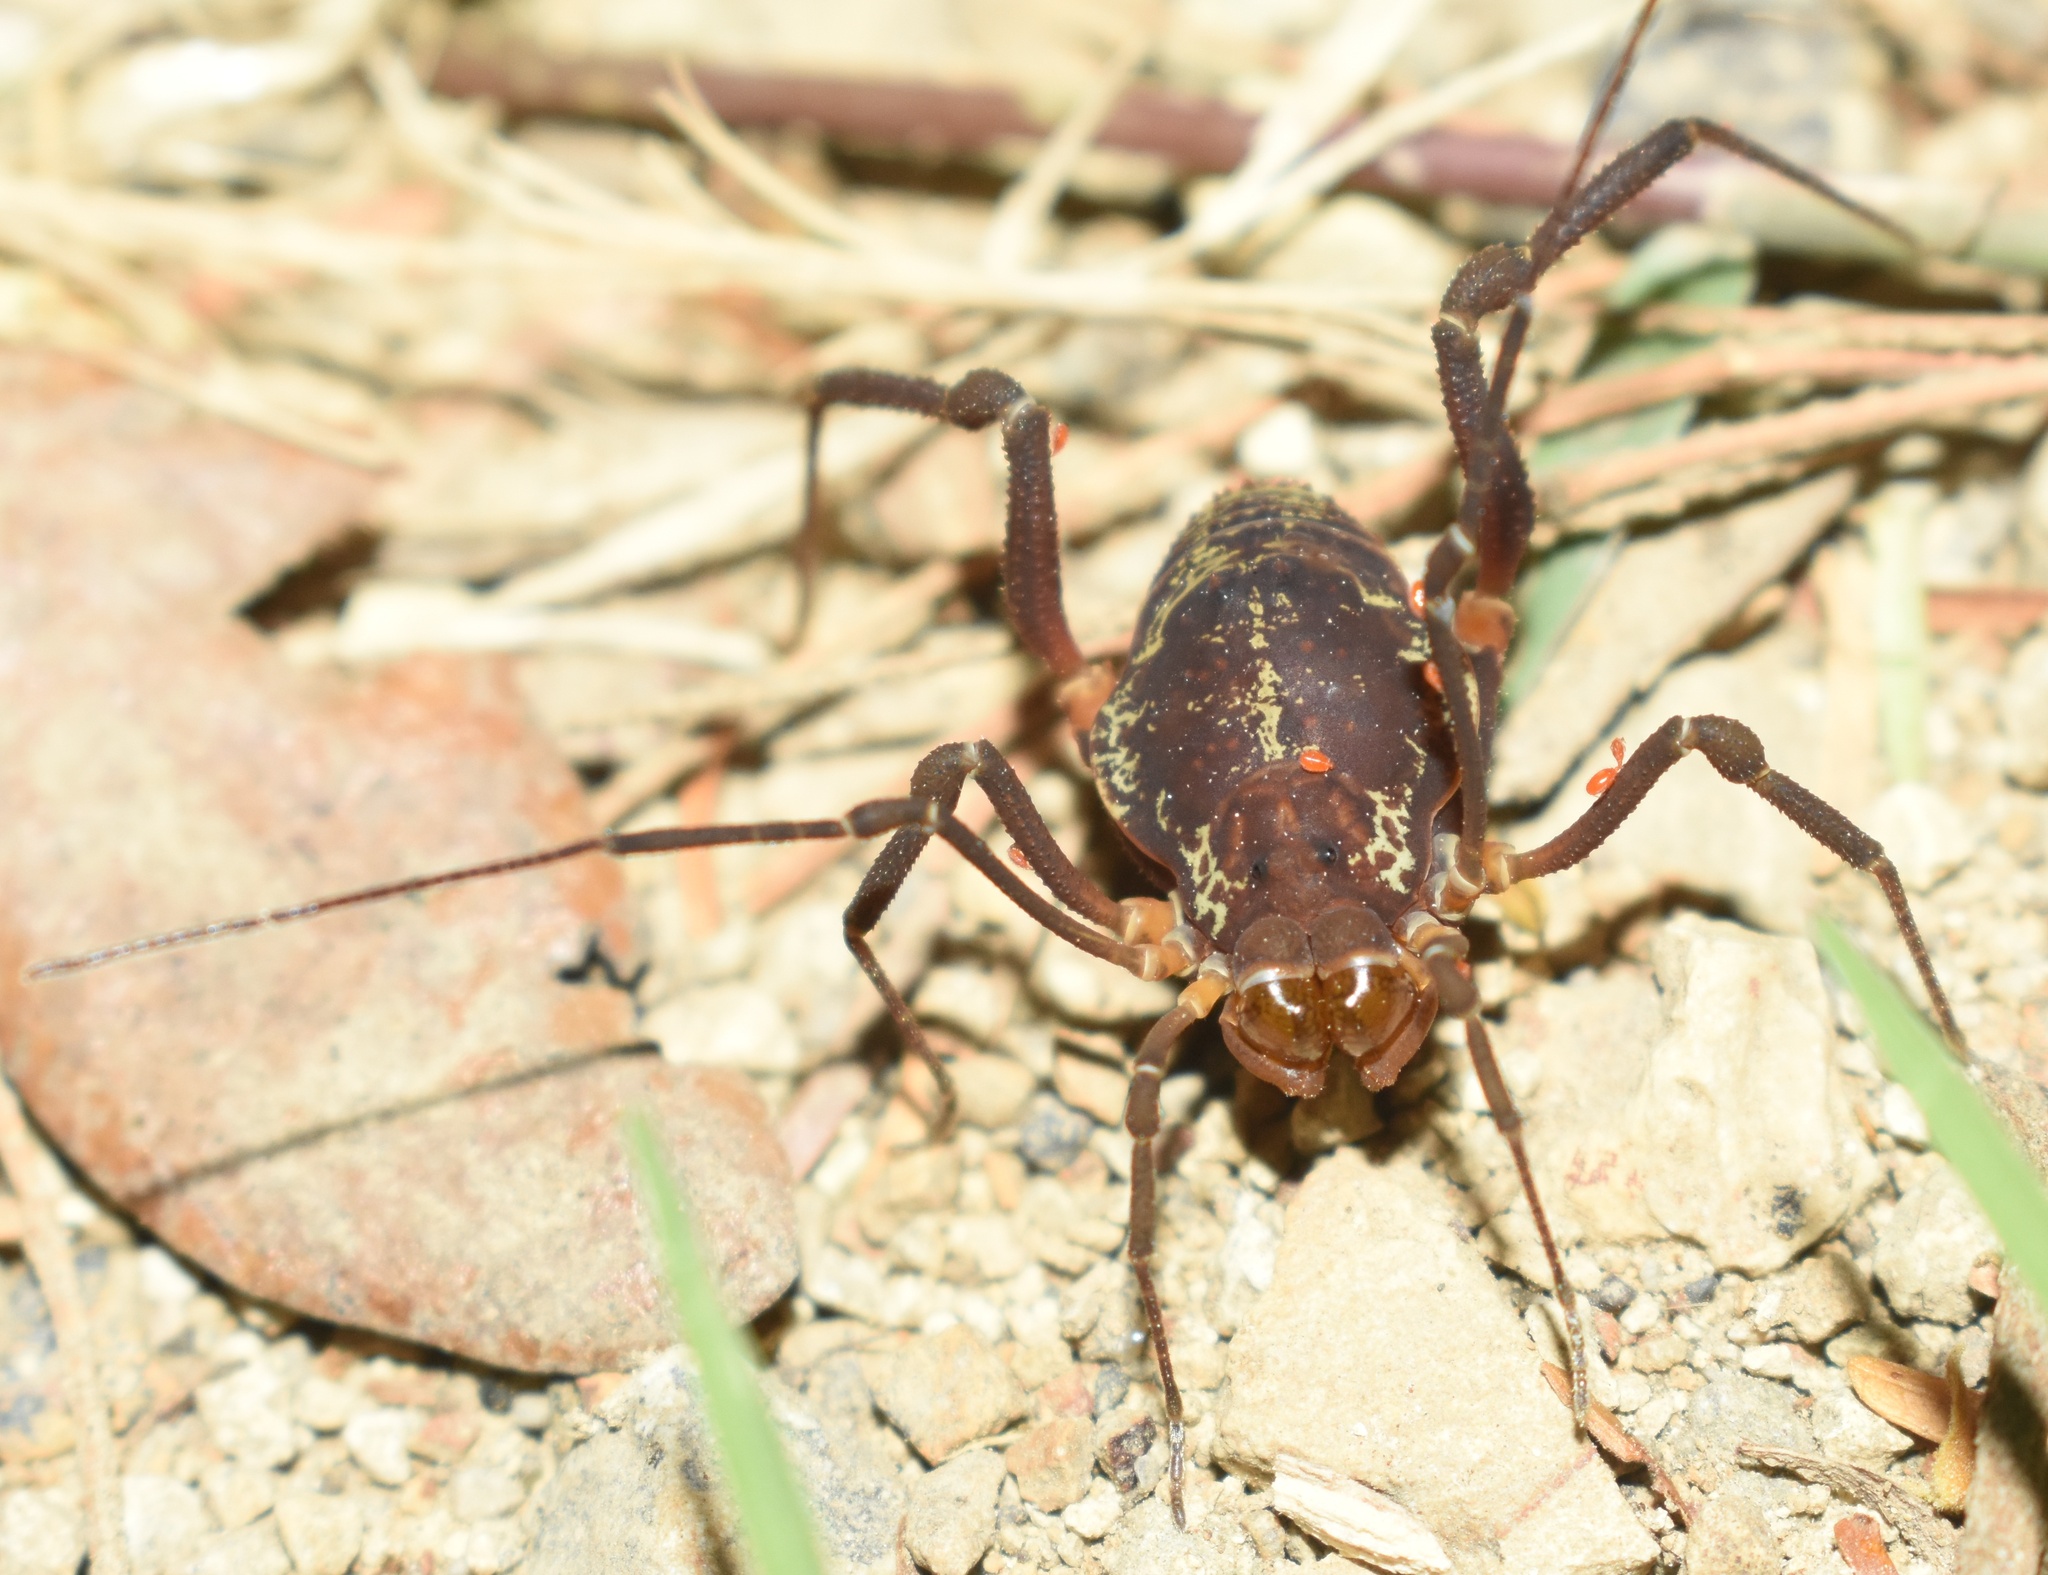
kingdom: Animalia
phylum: Arthropoda
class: Arachnida
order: Opiliones
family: Cosmetidae
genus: Erginulus
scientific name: Erginulus subserialis
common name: Harvestmen
